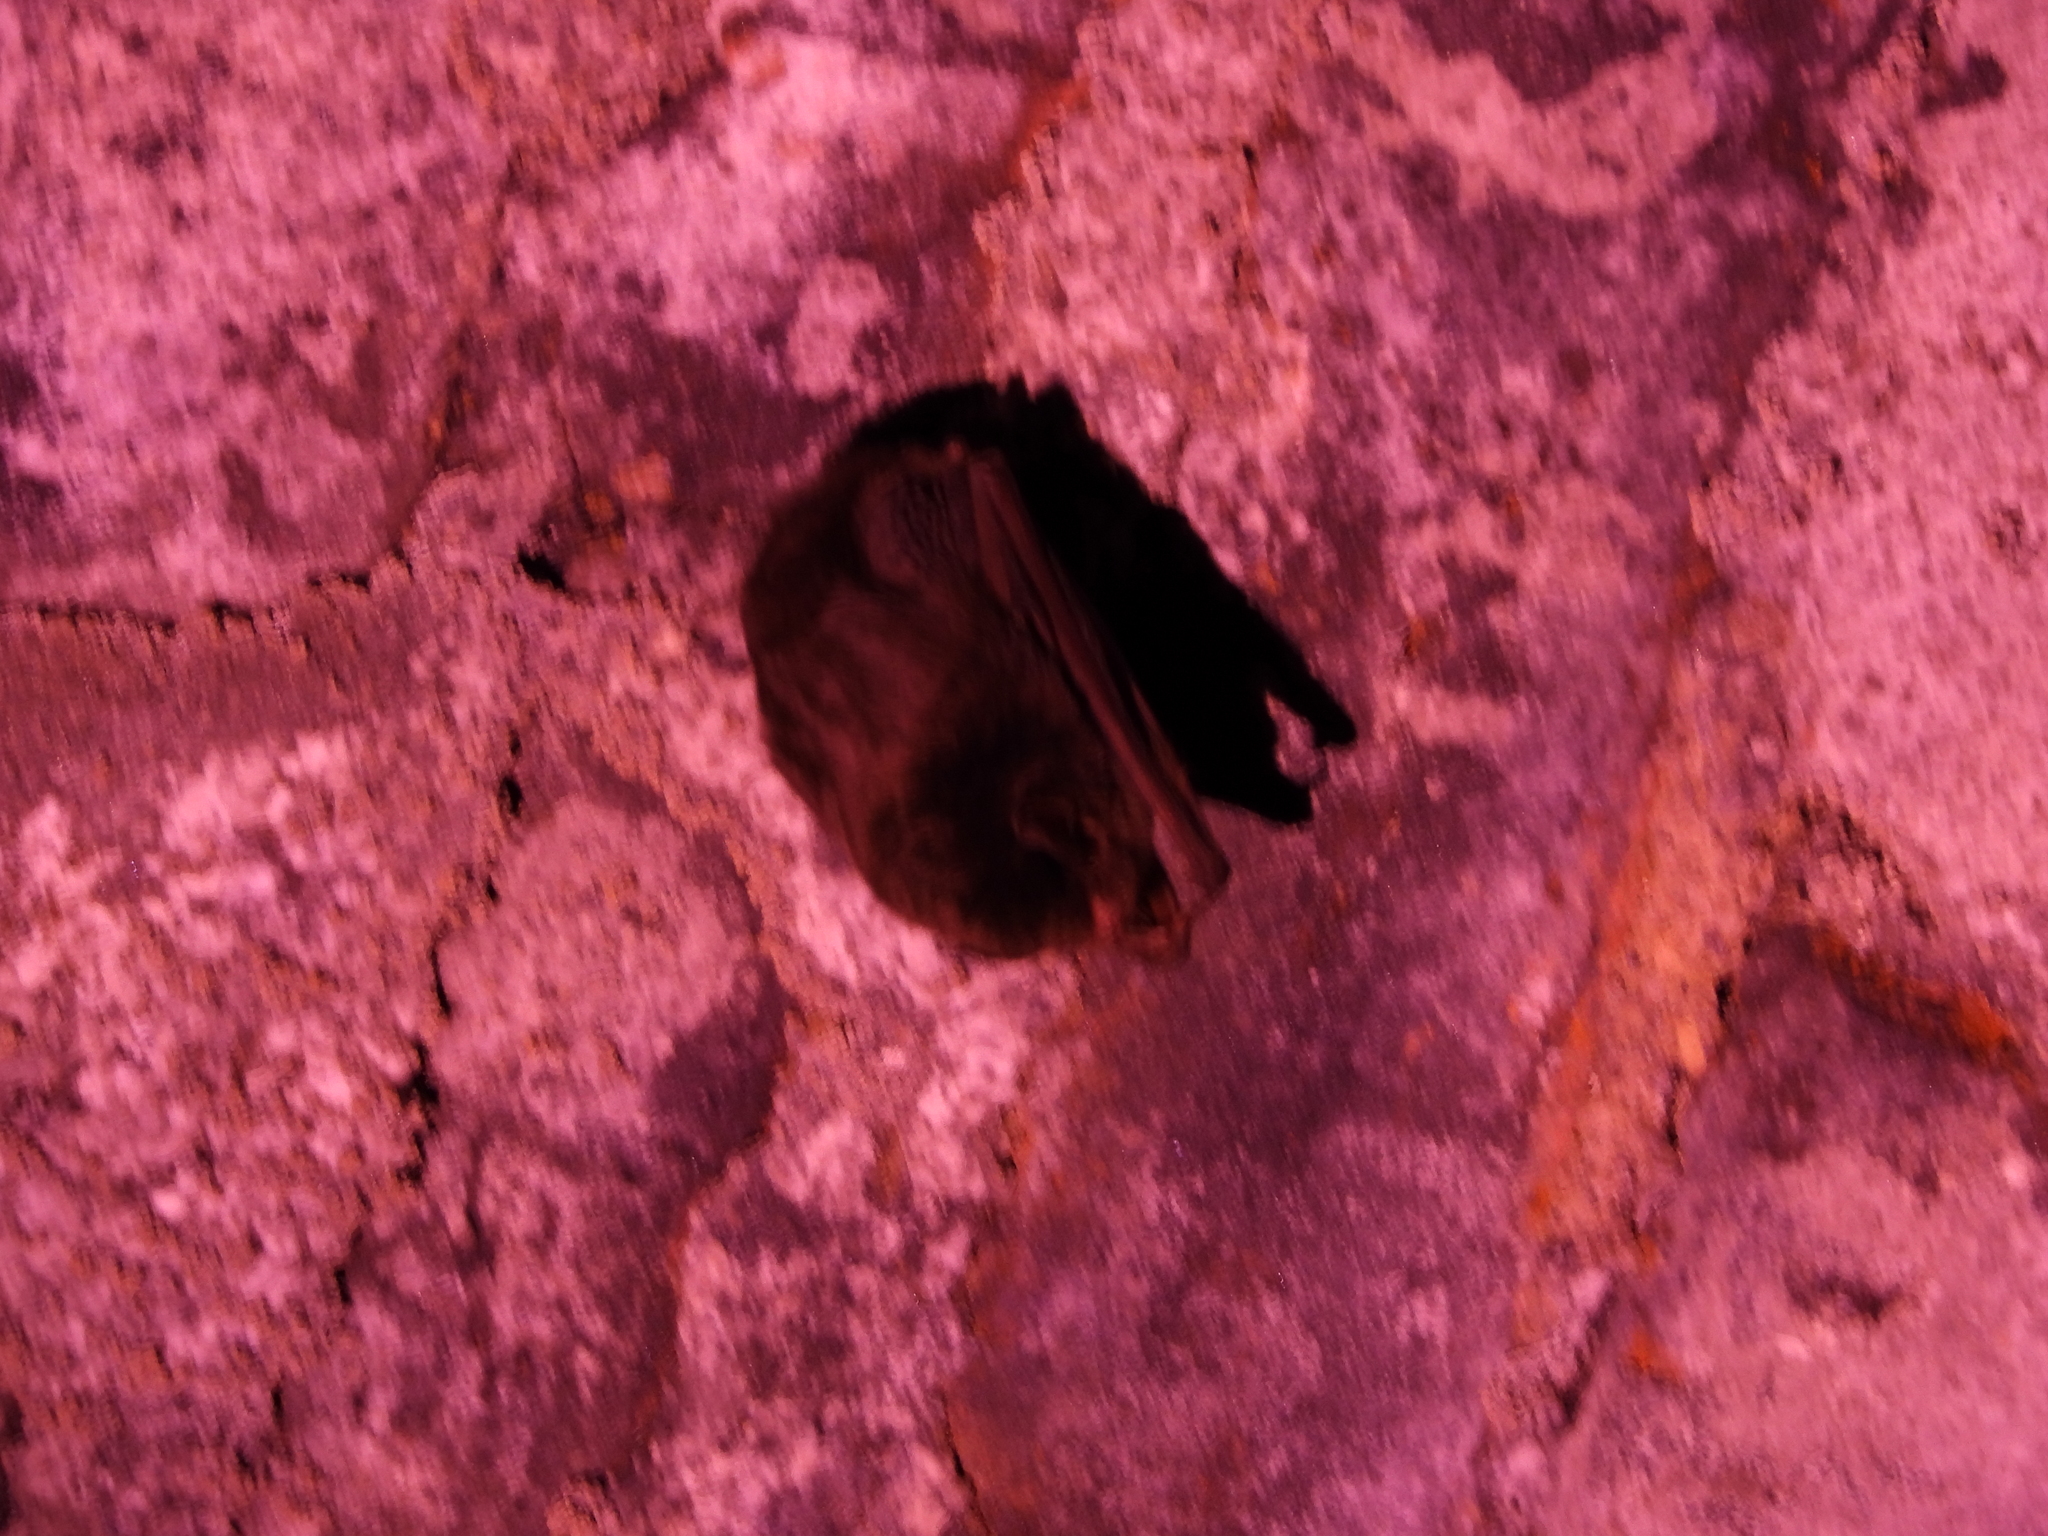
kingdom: Animalia
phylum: Chordata
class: Mammalia
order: Chiroptera
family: Miniopteridae
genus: Miniopterus
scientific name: Miniopterus fuliginosus
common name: Asian long-fingered bat
